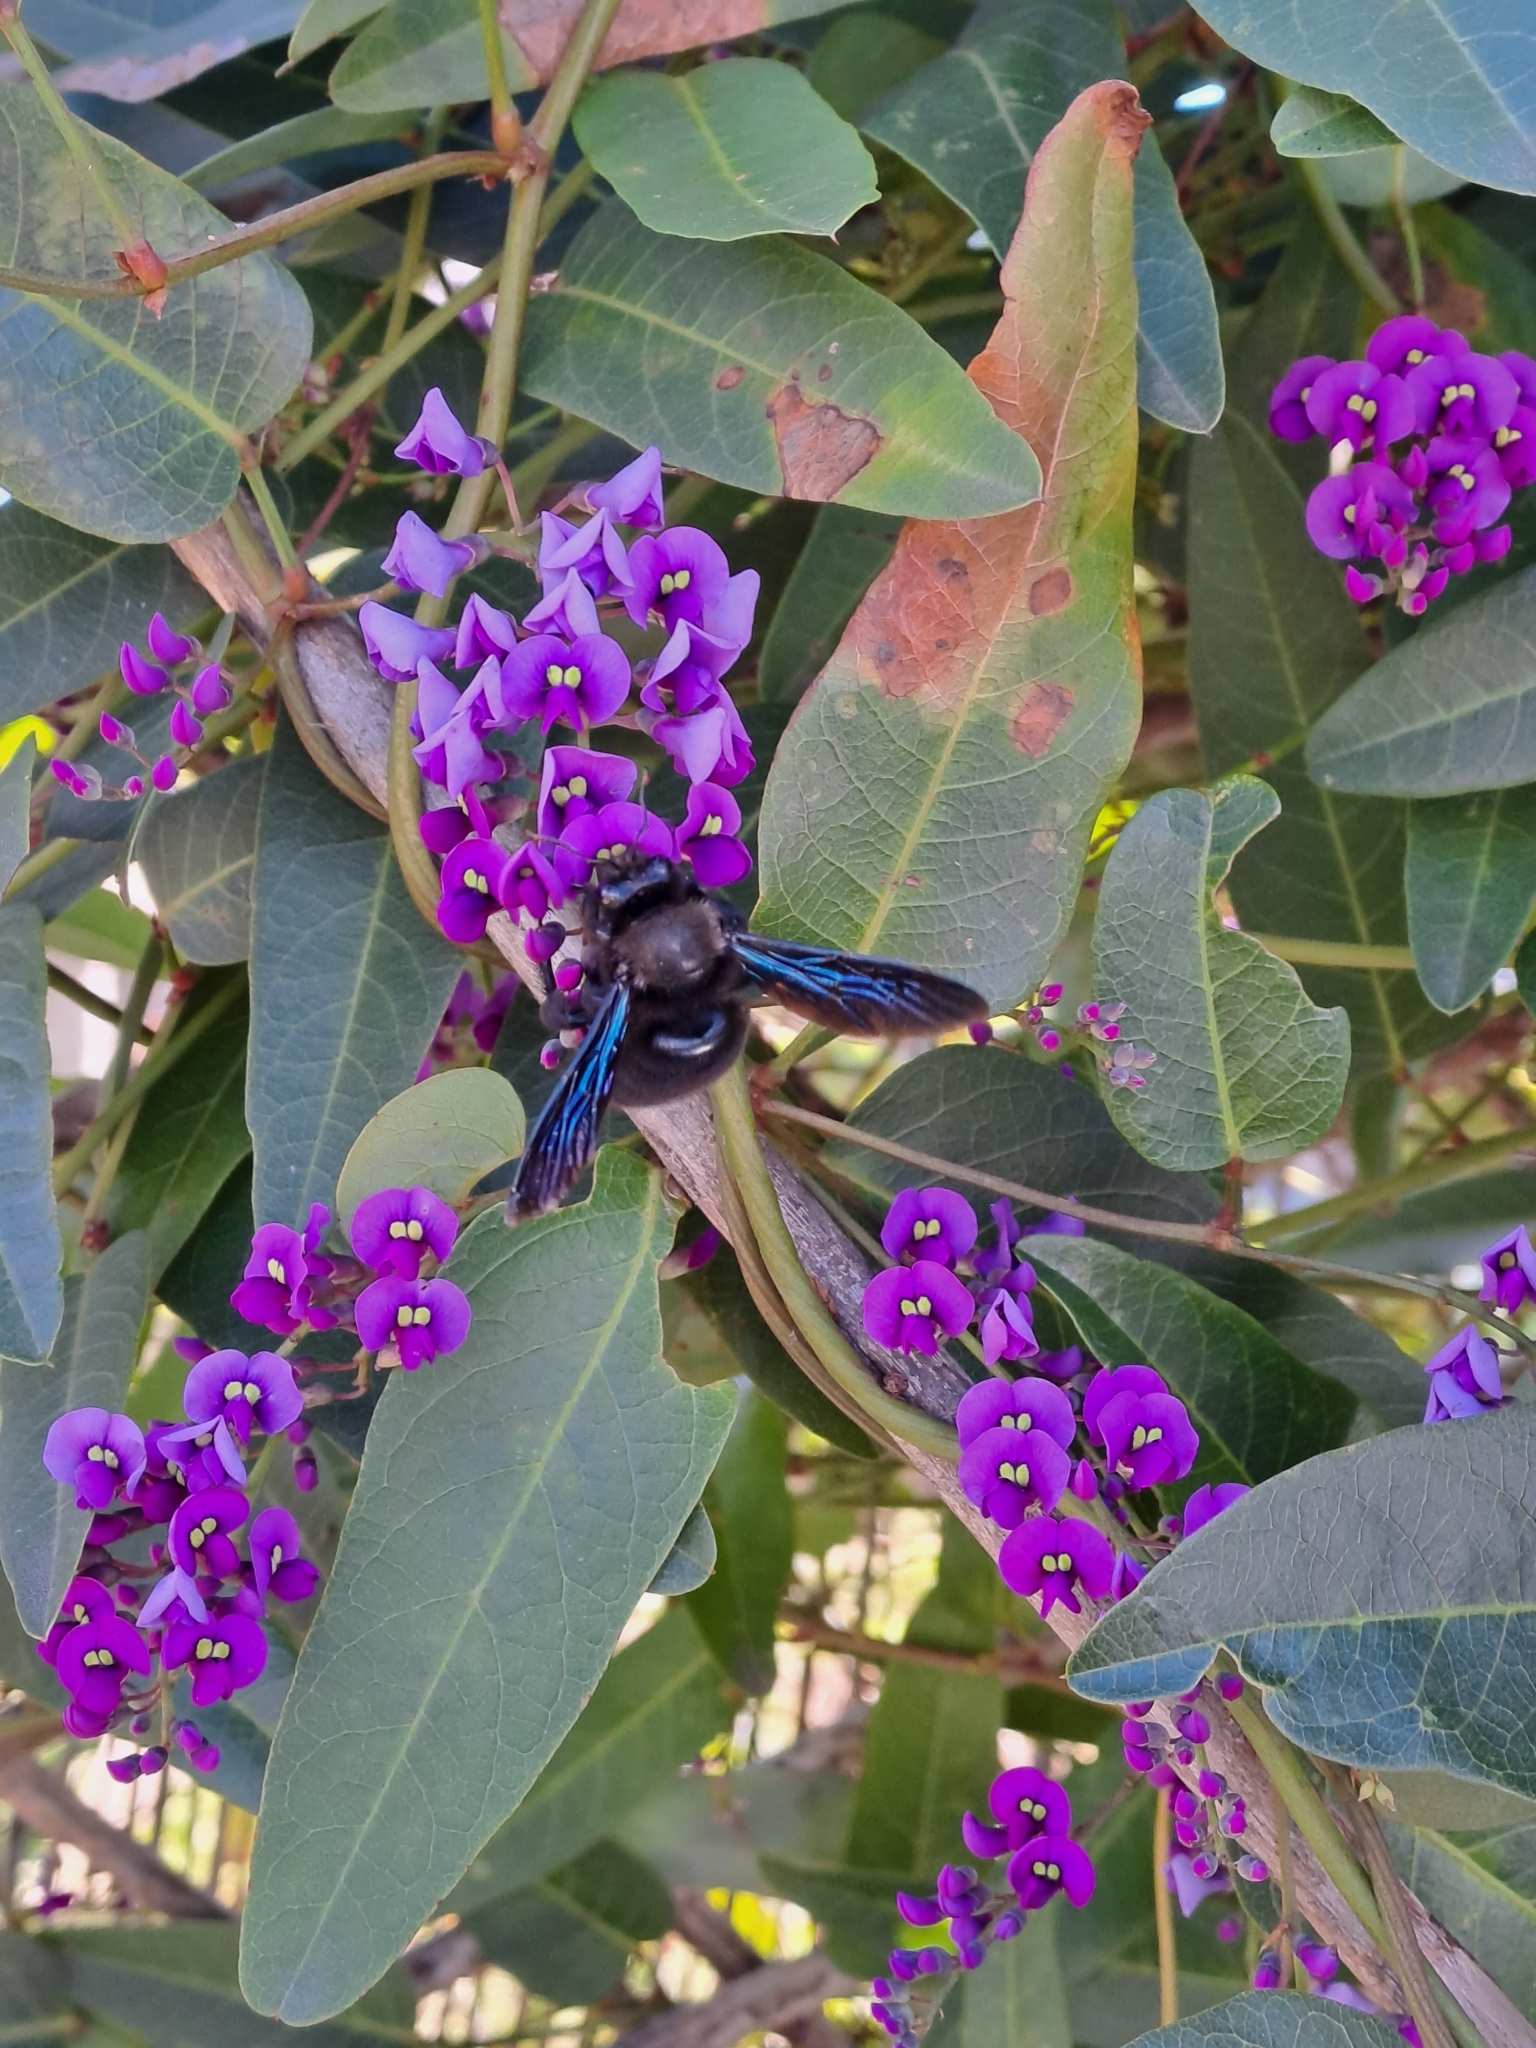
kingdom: Animalia
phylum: Arthropoda
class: Insecta
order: Hymenoptera
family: Apidae
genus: Xylocopa
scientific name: Xylocopa violacea
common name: Violet carpenter bee
